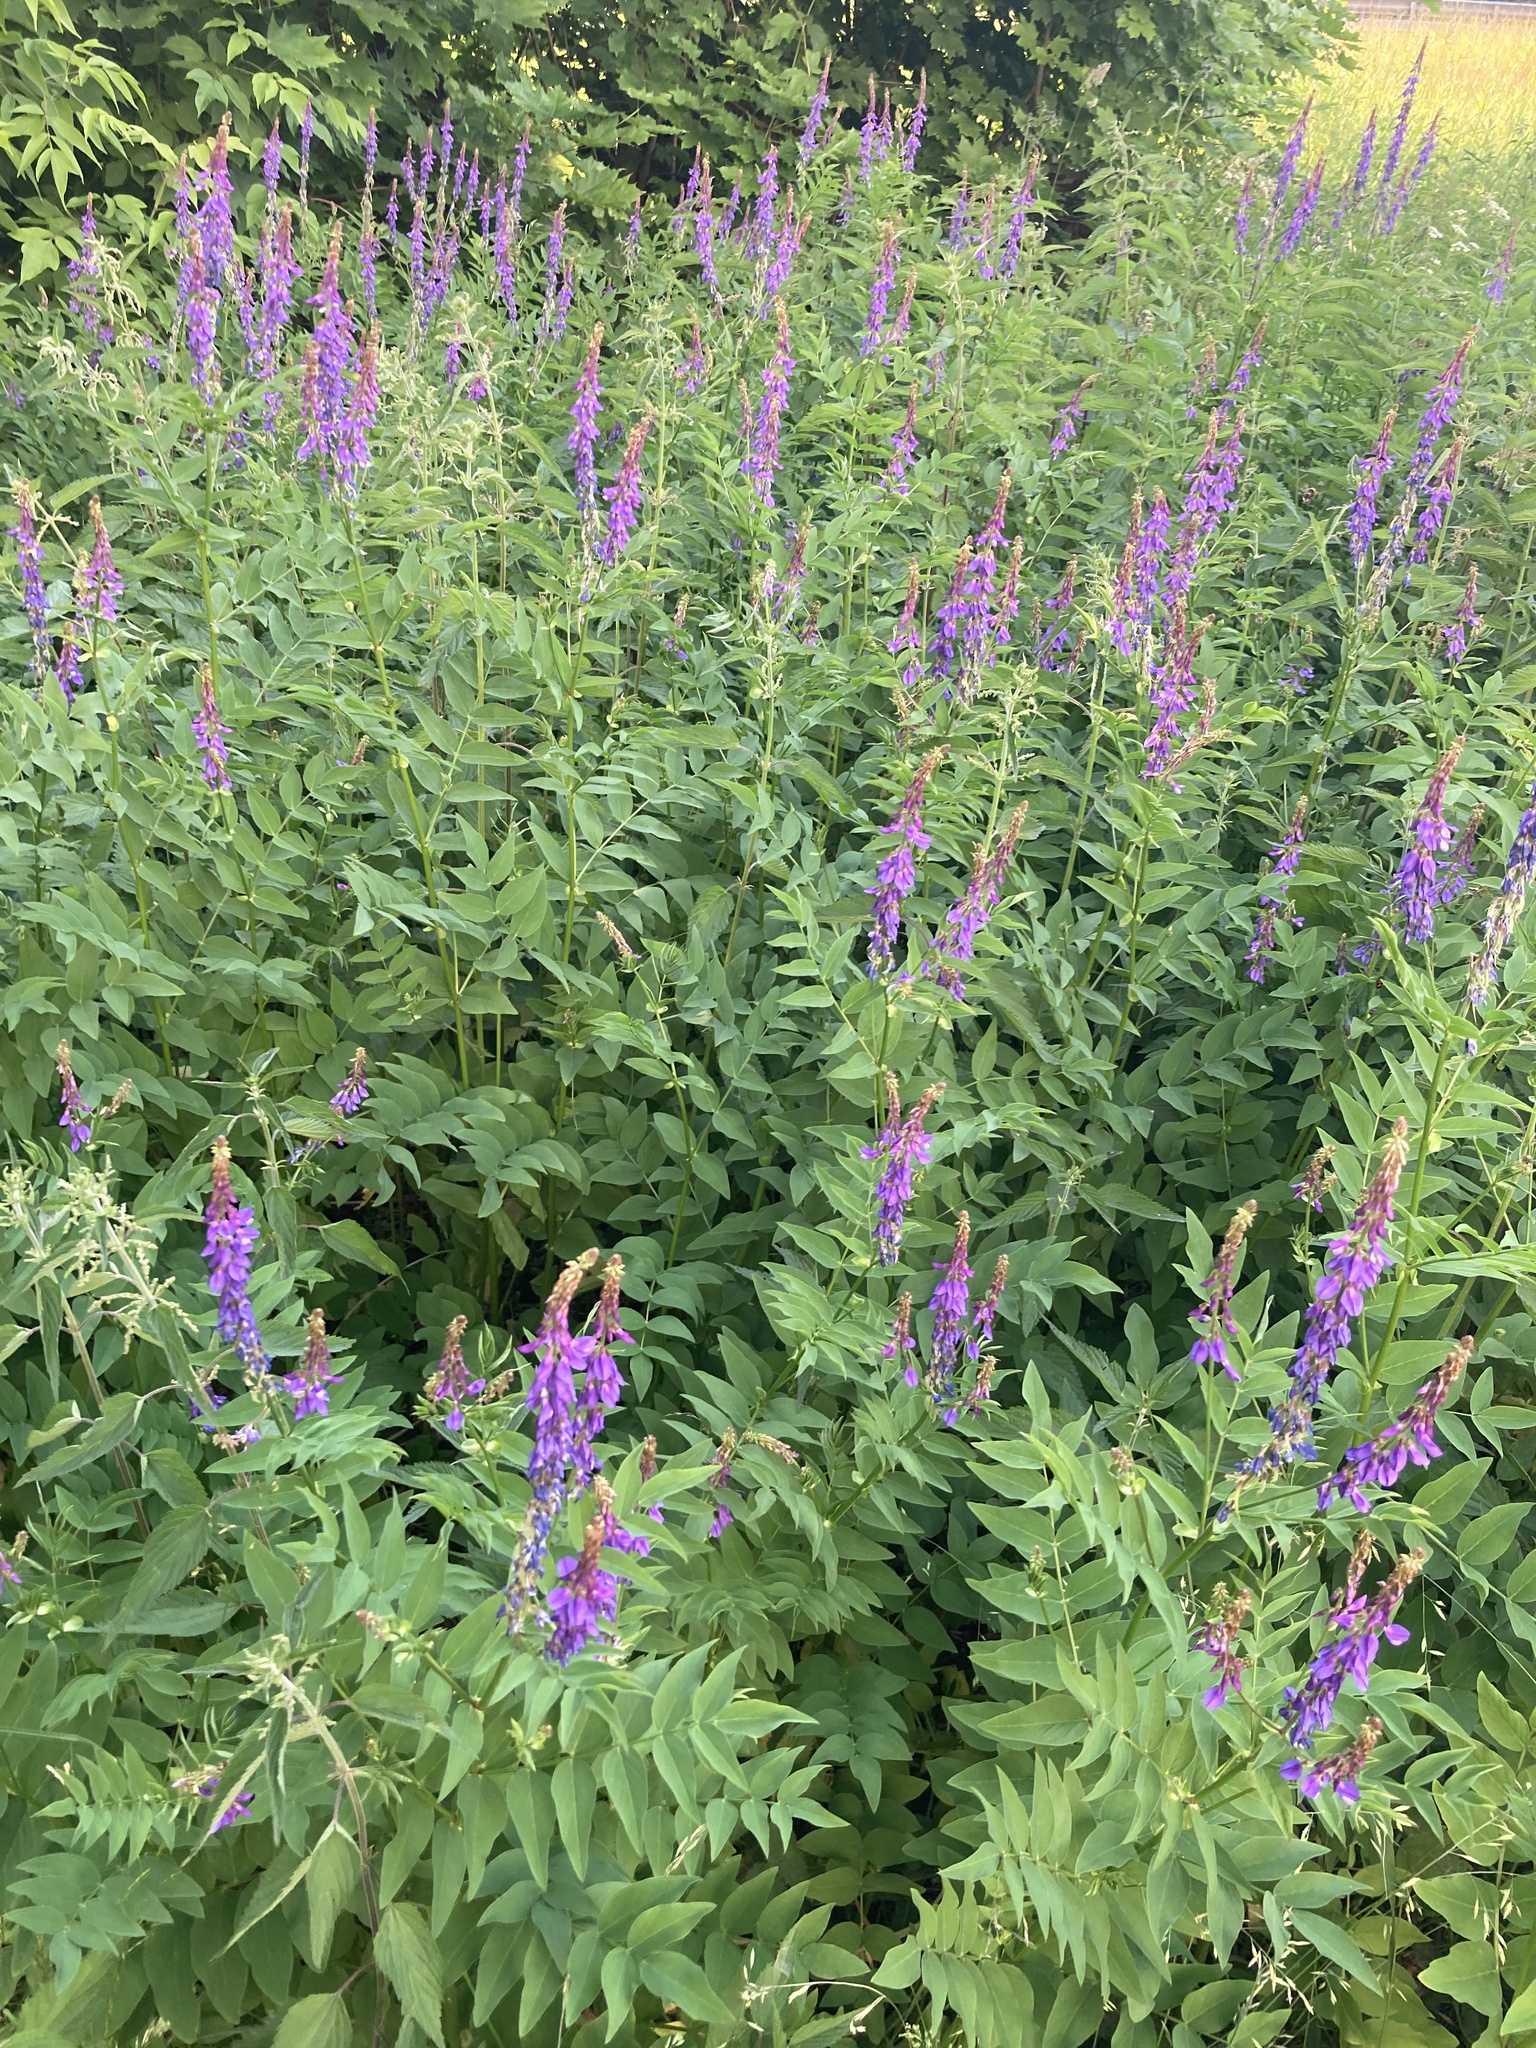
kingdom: Plantae
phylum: Tracheophyta
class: Magnoliopsida
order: Fabales
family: Fabaceae
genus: Galega
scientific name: Galega orientalis
